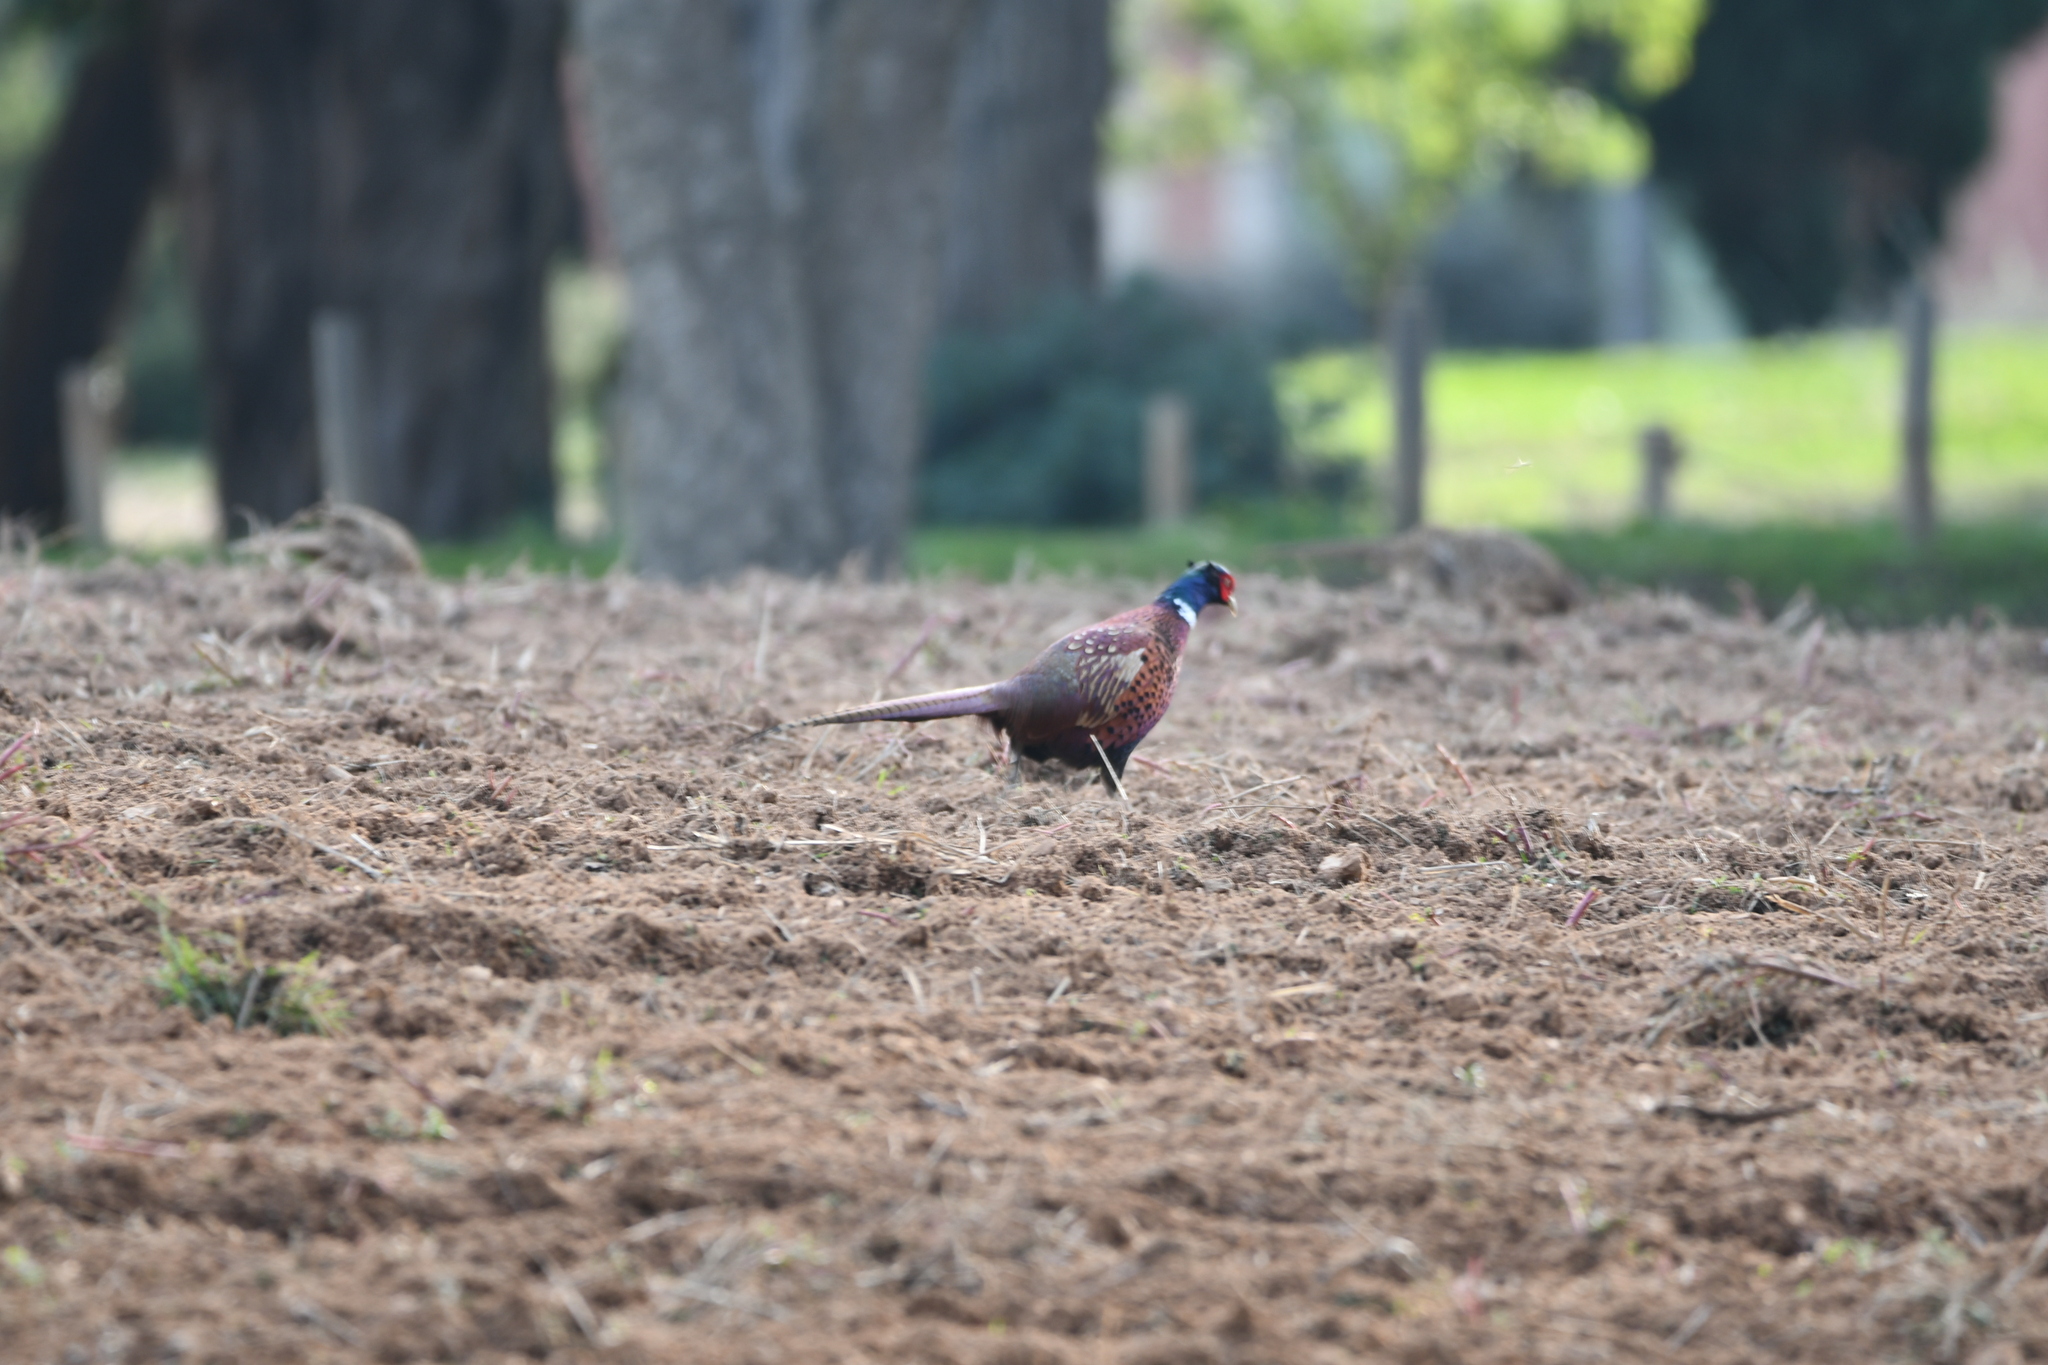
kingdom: Animalia
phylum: Chordata
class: Aves
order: Galliformes
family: Phasianidae
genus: Phasianus
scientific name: Phasianus colchicus
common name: Common pheasant
